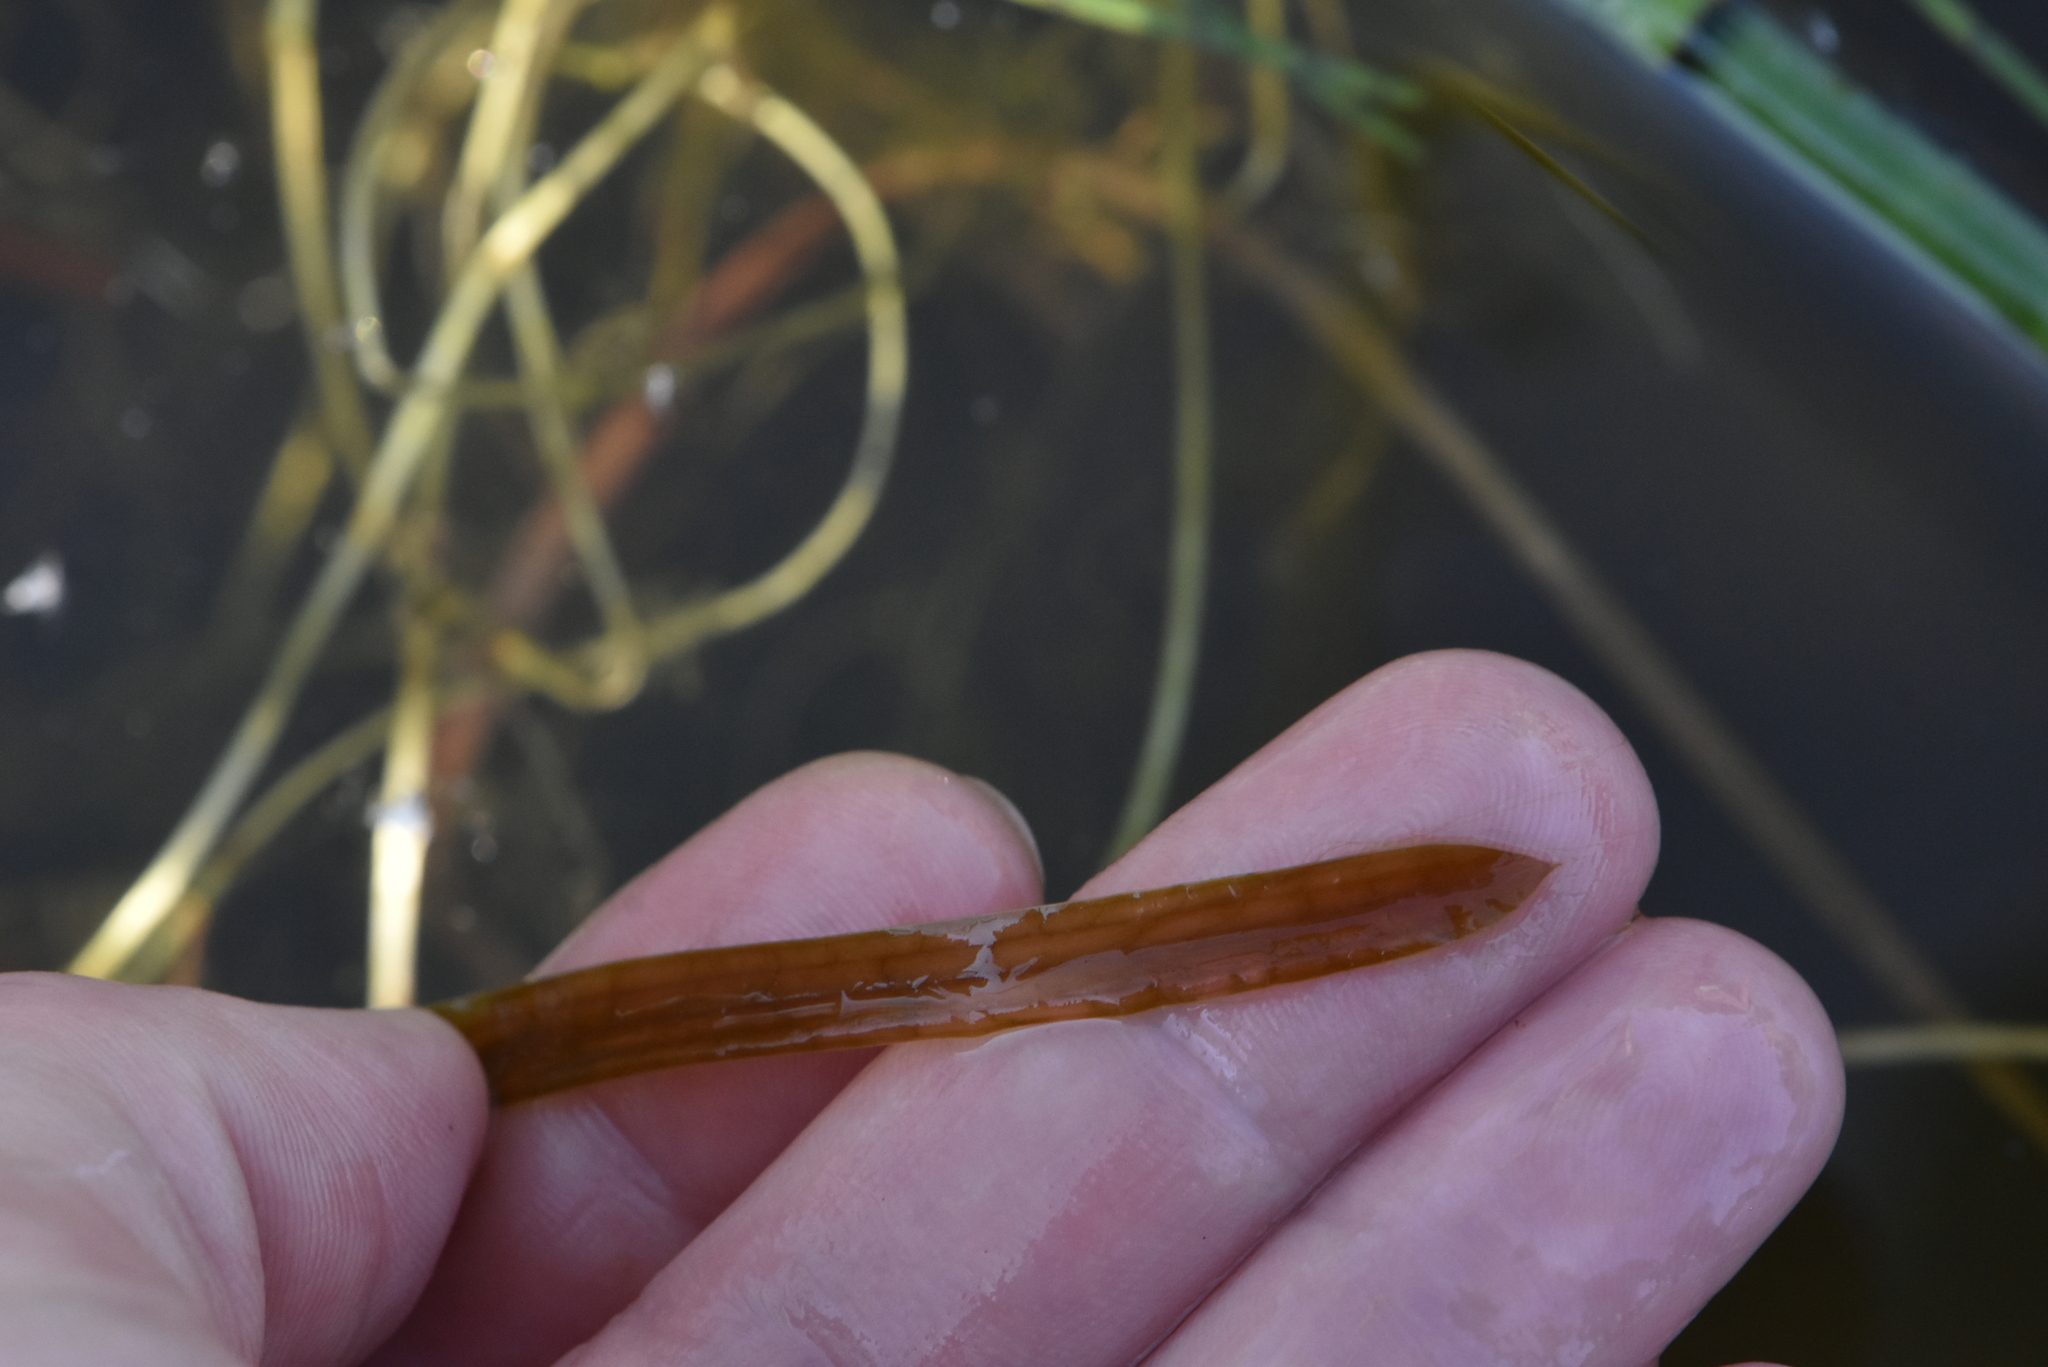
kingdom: Plantae
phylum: Tracheophyta
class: Liliopsida
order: Alismatales
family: Potamogetonaceae
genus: Potamogeton
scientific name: Potamogeton acutifolius
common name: Sharp-leaved pondweed
